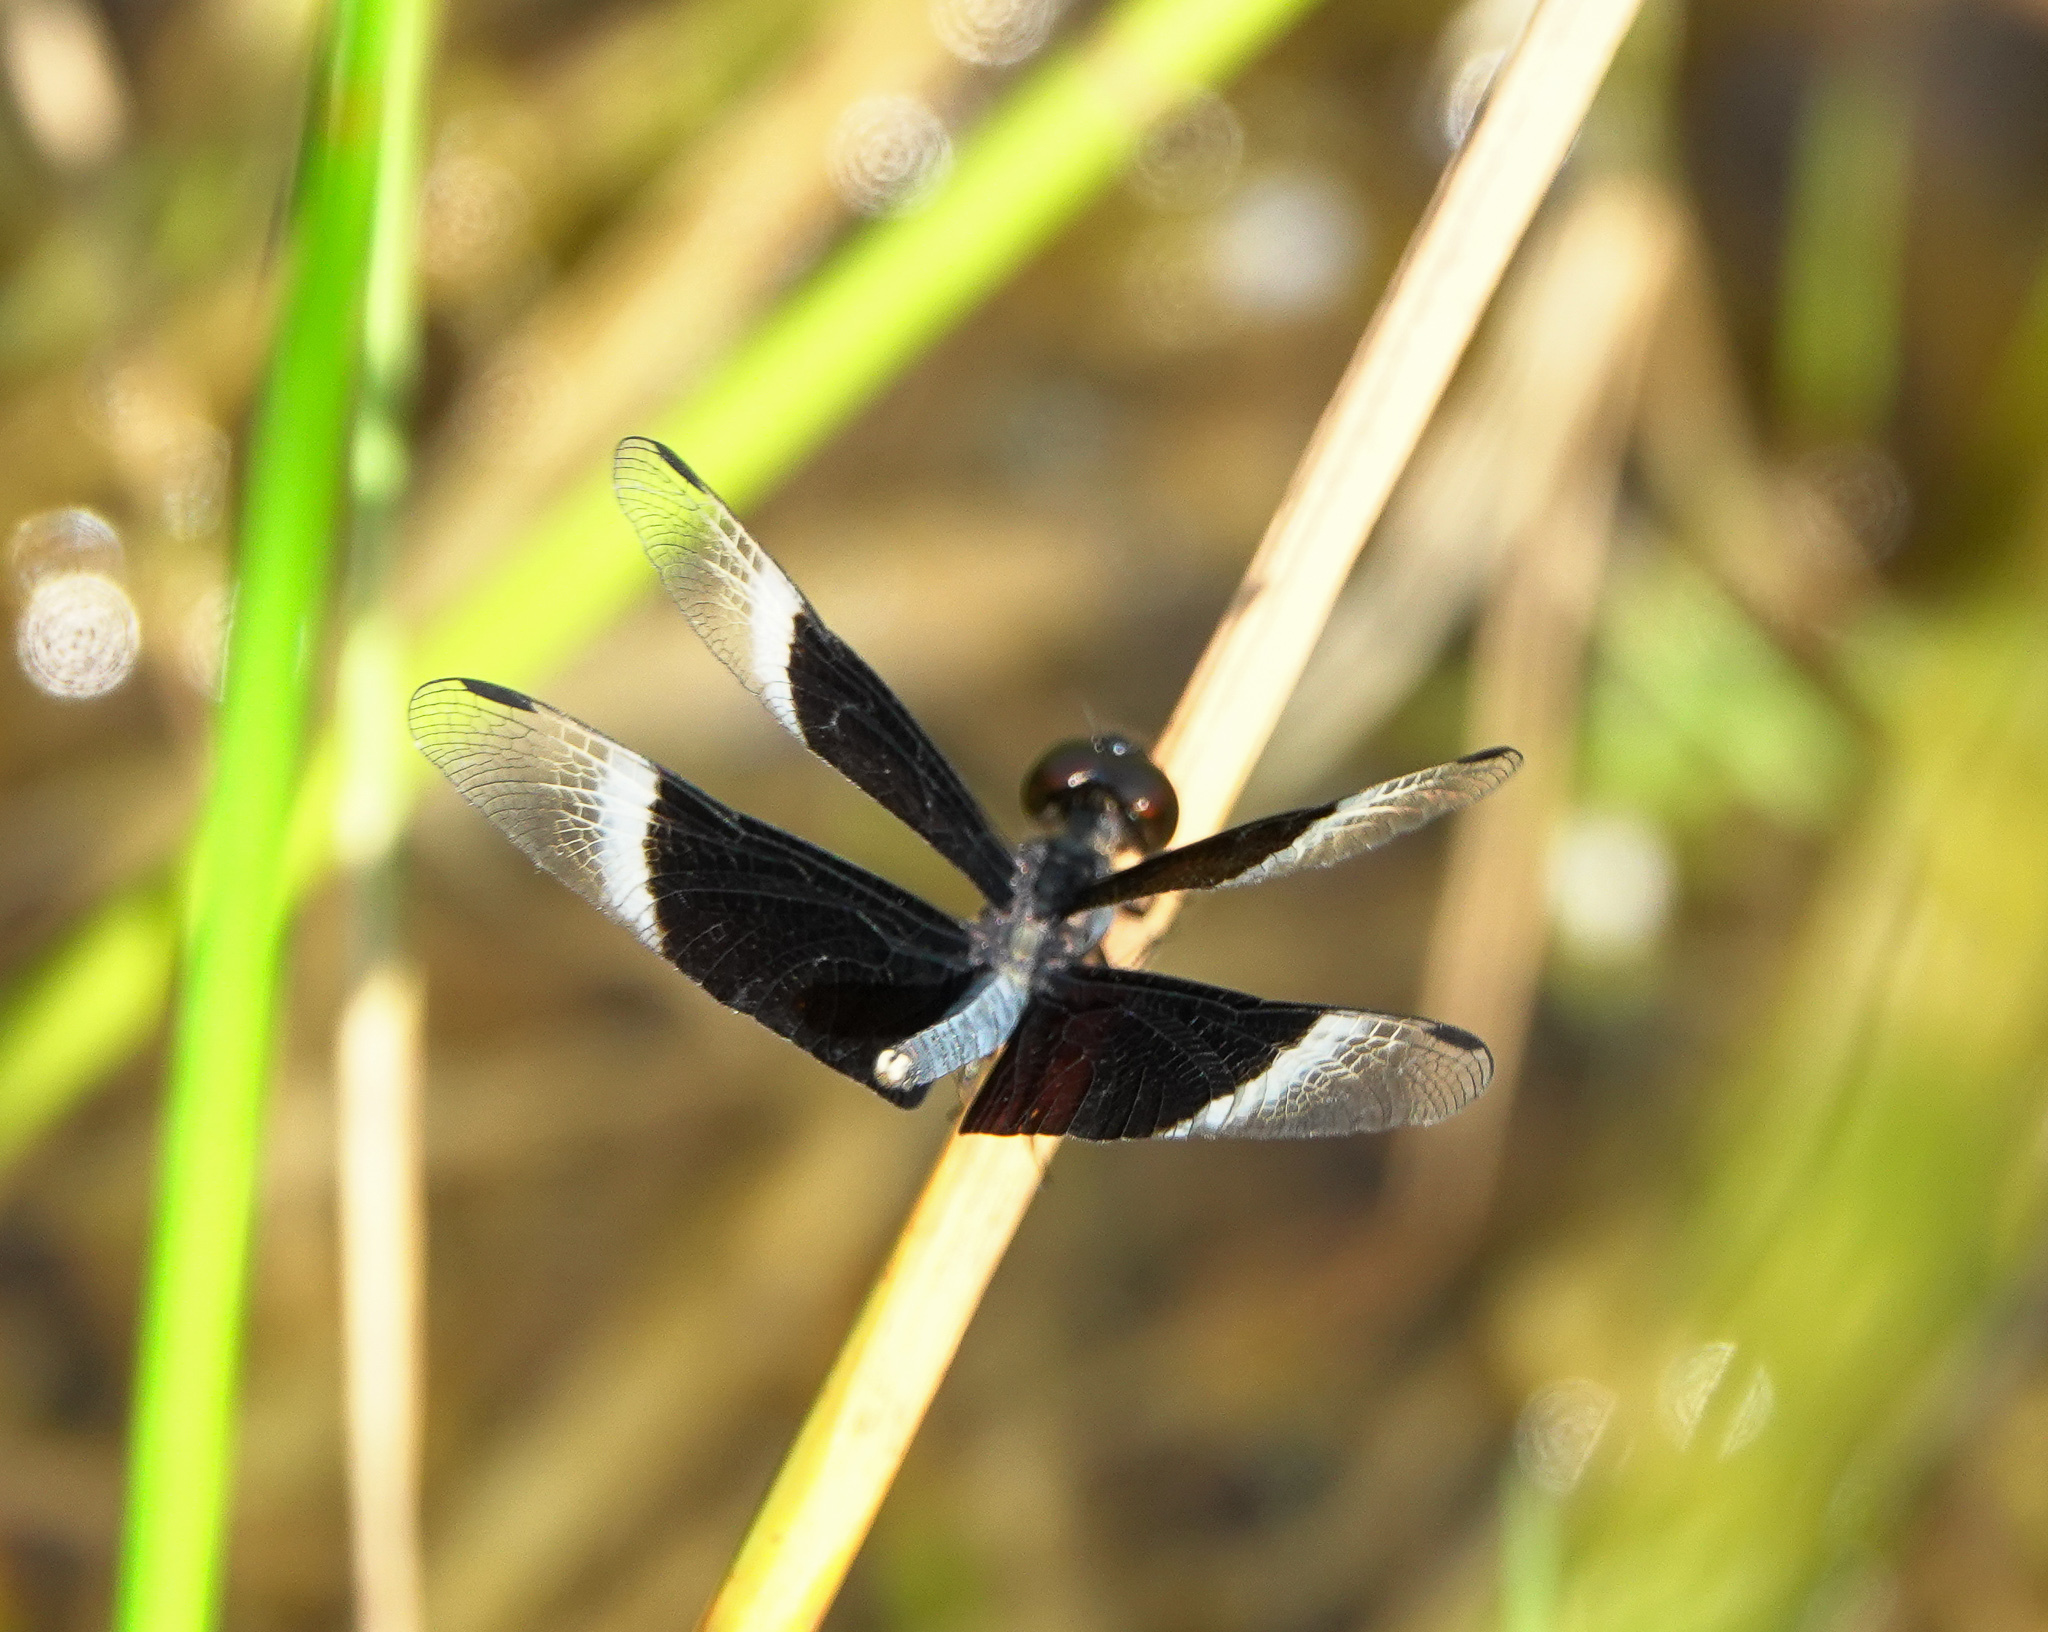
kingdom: Animalia
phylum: Arthropoda
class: Insecta
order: Odonata
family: Libellulidae
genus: Neurothemis
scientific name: Neurothemis tullia
